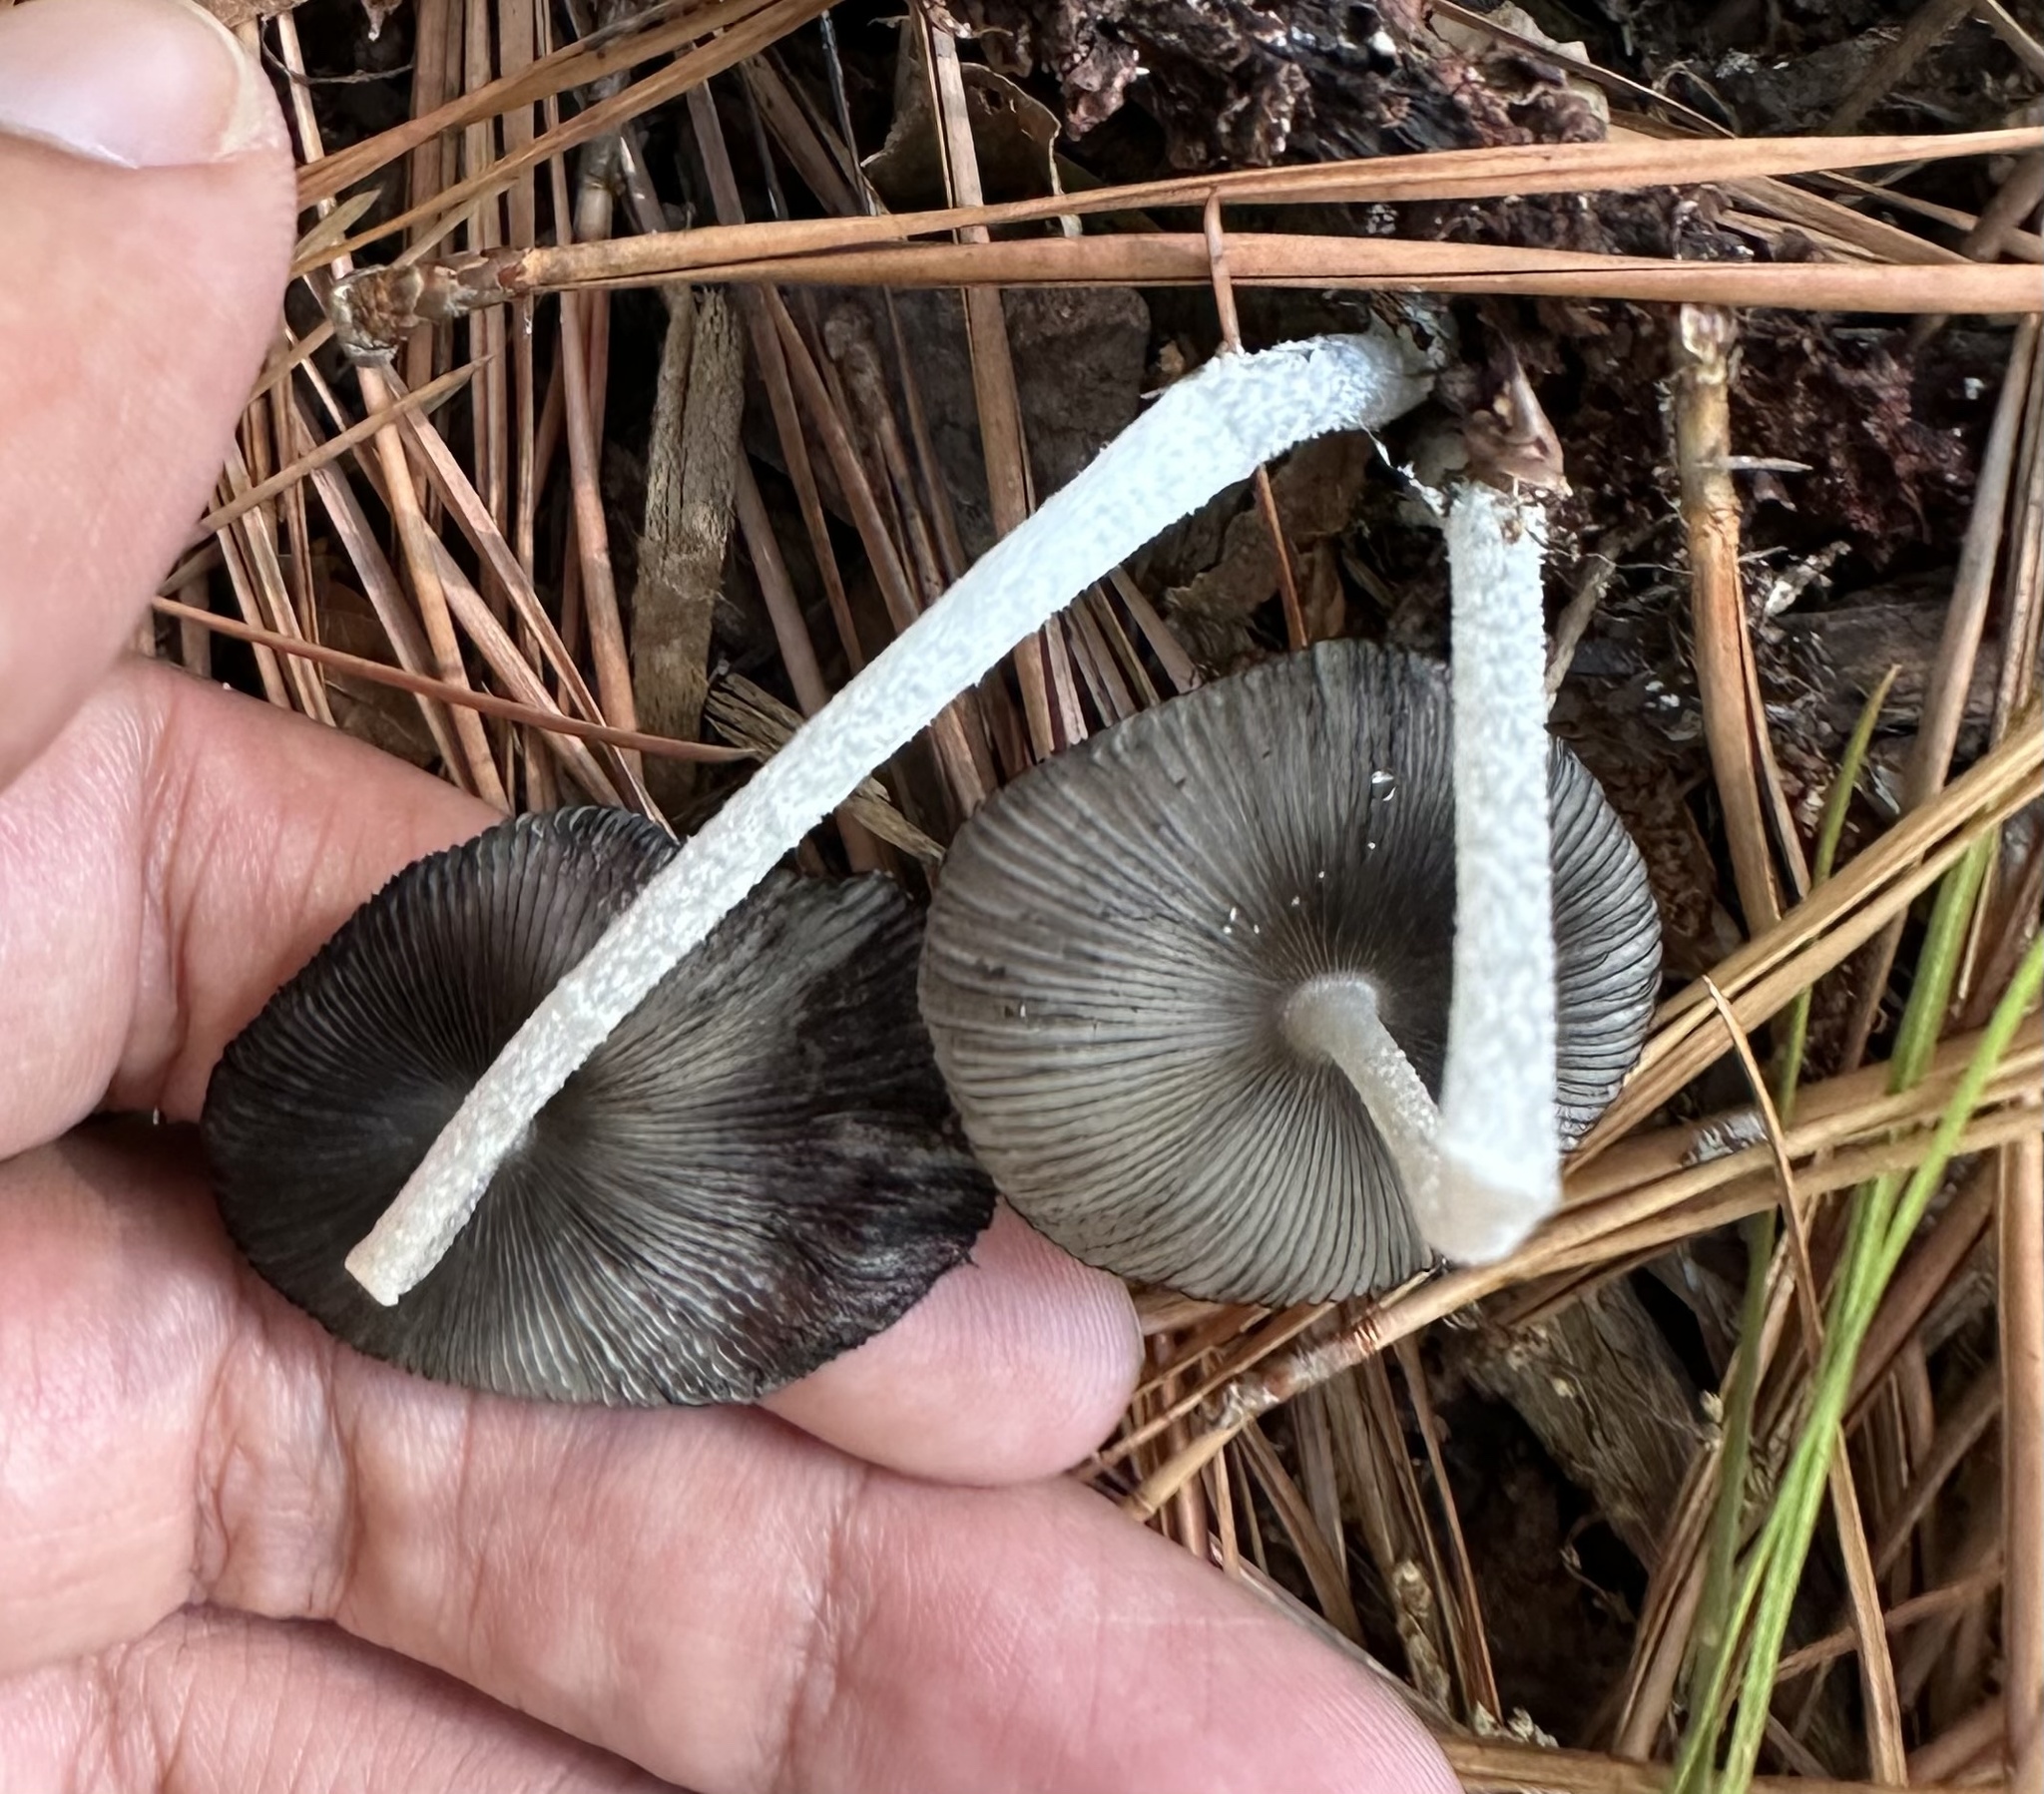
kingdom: Fungi
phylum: Basidiomycota
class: Agaricomycetes
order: Agaricales
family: Psathyrellaceae
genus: Coprinopsis
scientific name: Coprinopsis lagopus
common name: Hare'sfoot inkcap
